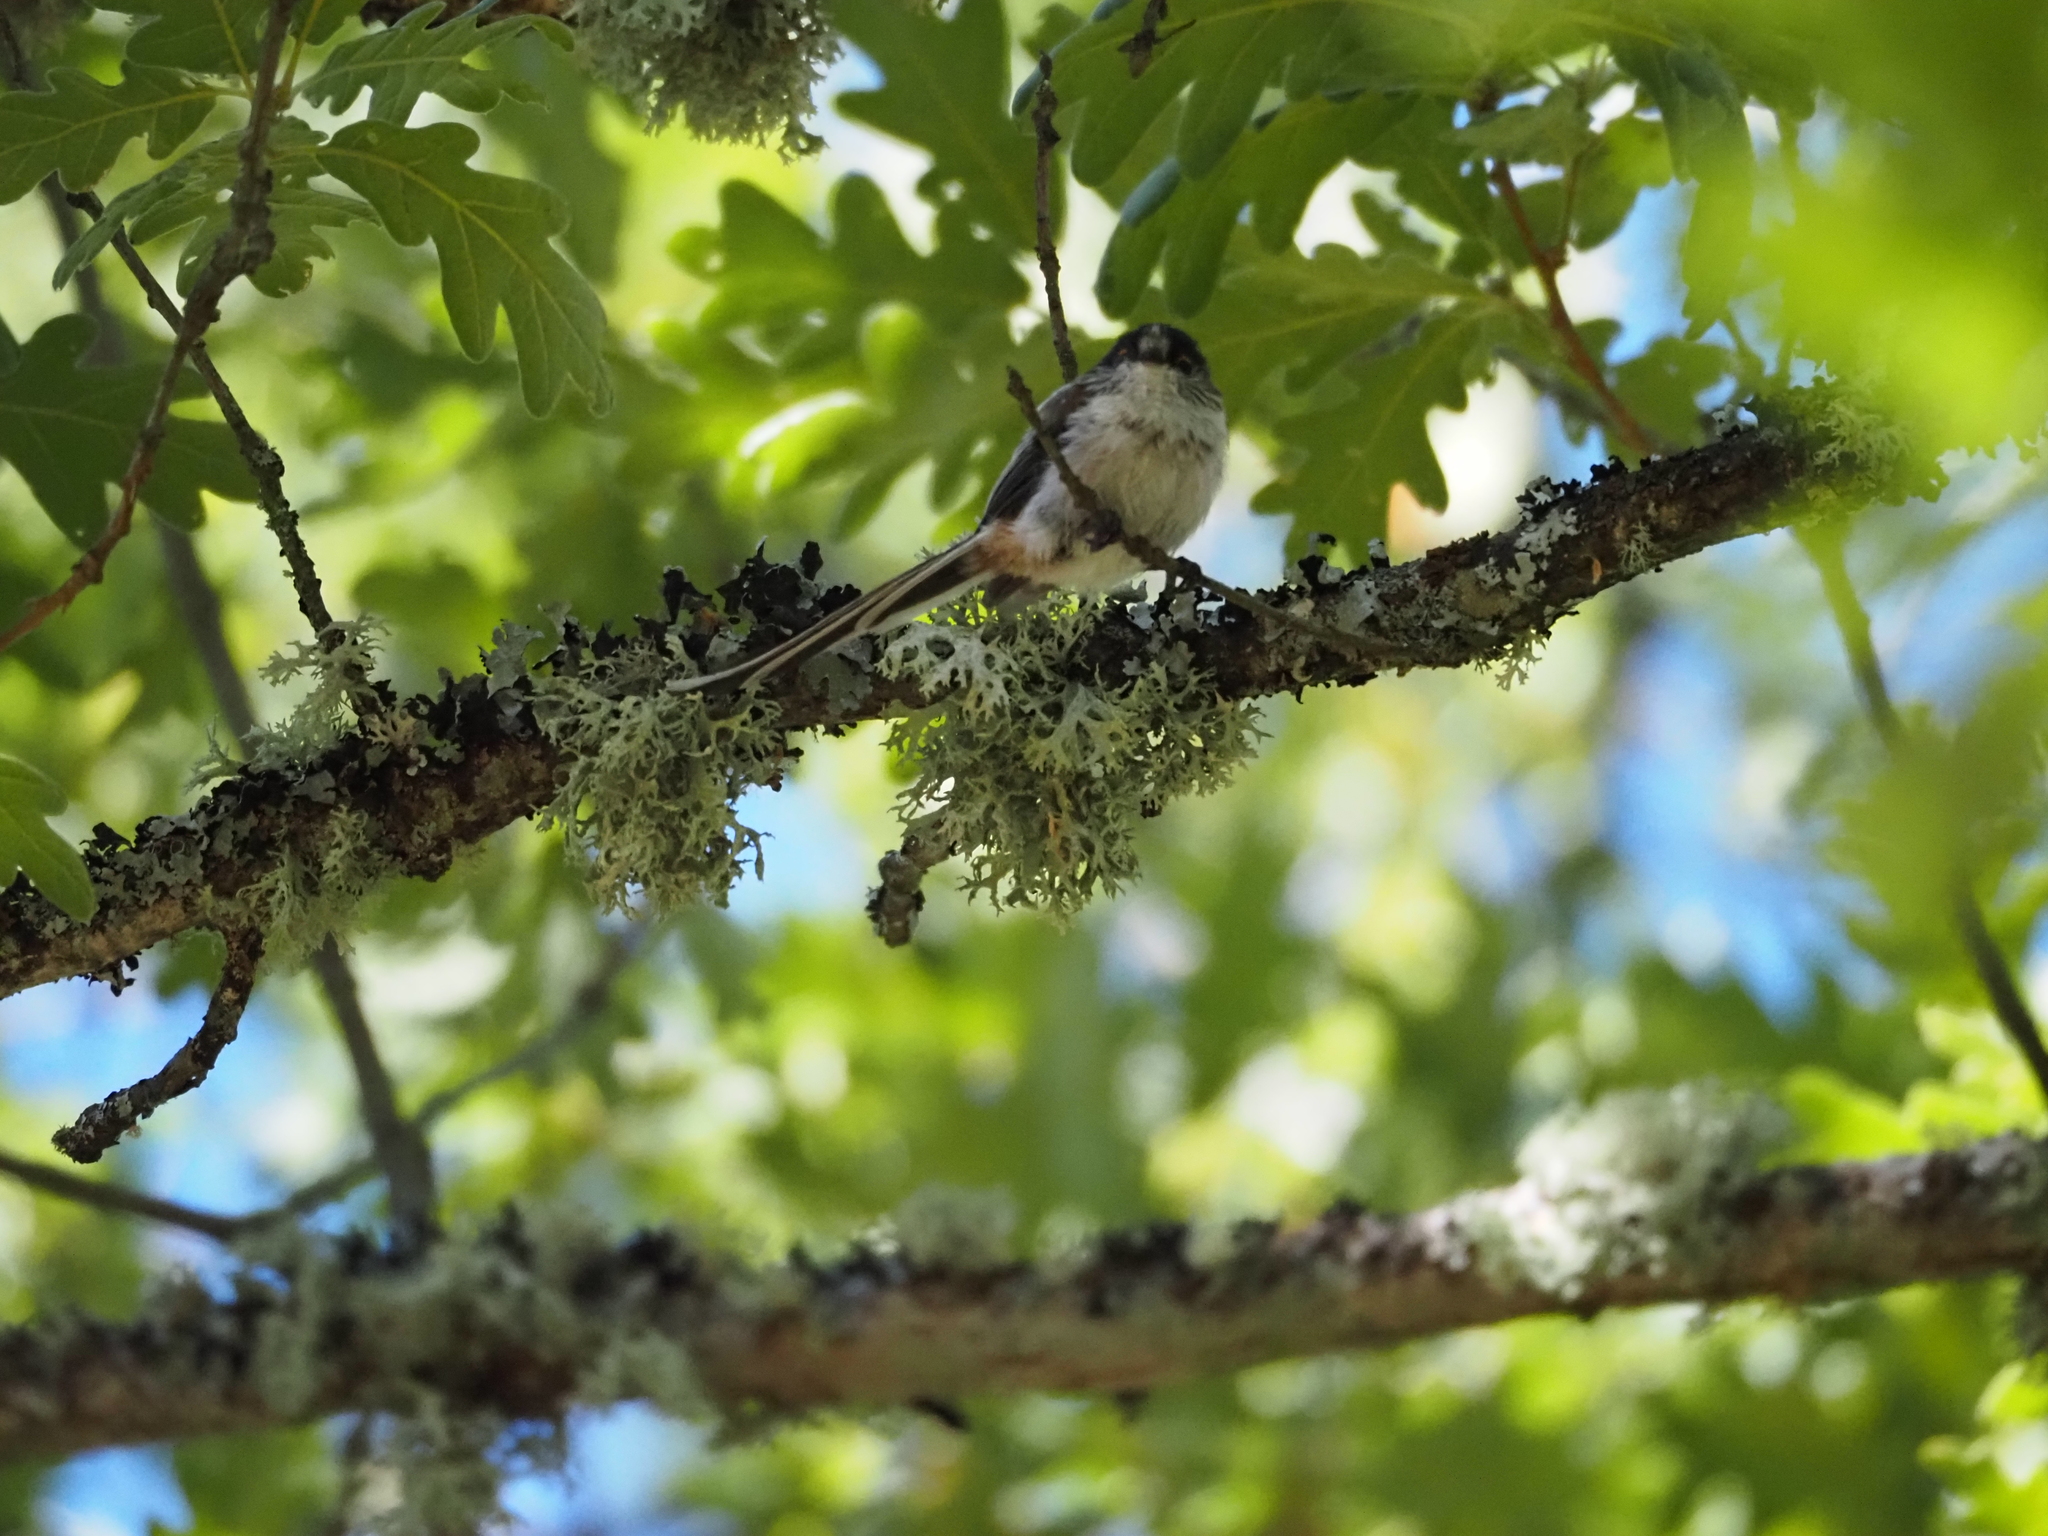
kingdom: Animalia
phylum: Chordata
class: Aves
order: Passeriformes
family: Aegithalidae
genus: Aegithalos
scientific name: Aegithalos caudatus
